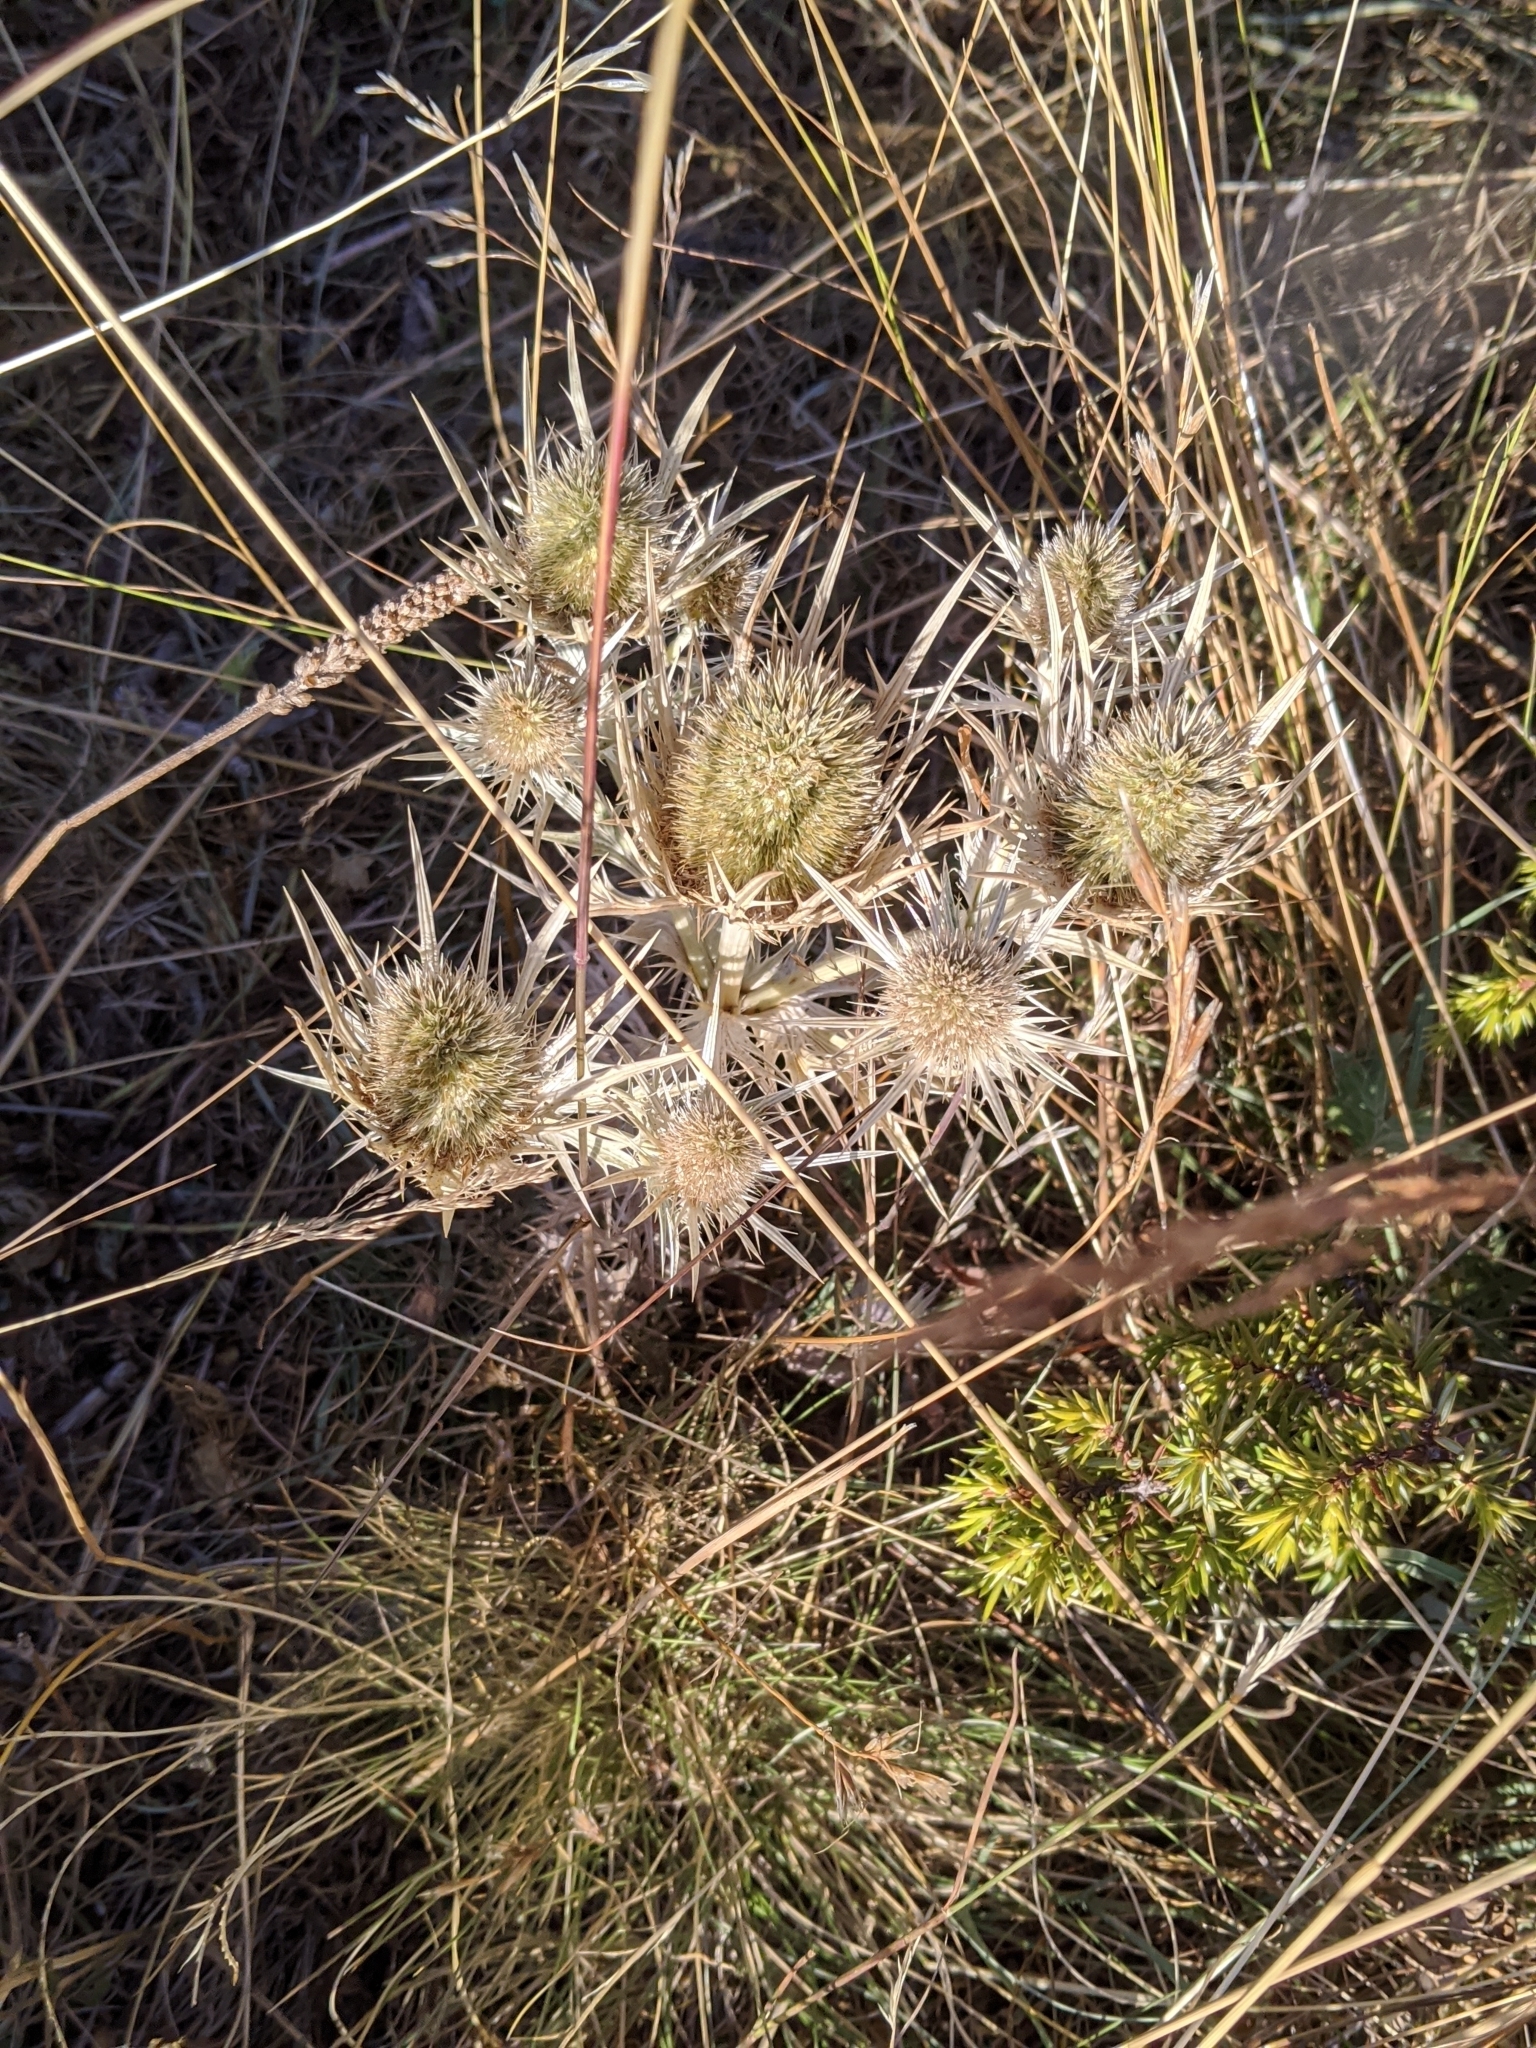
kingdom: Plantae
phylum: Tracheophyta
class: Magnoliopsida
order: Apiales
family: Apiaceae
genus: Eryngium
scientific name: Eryngium spinalba
